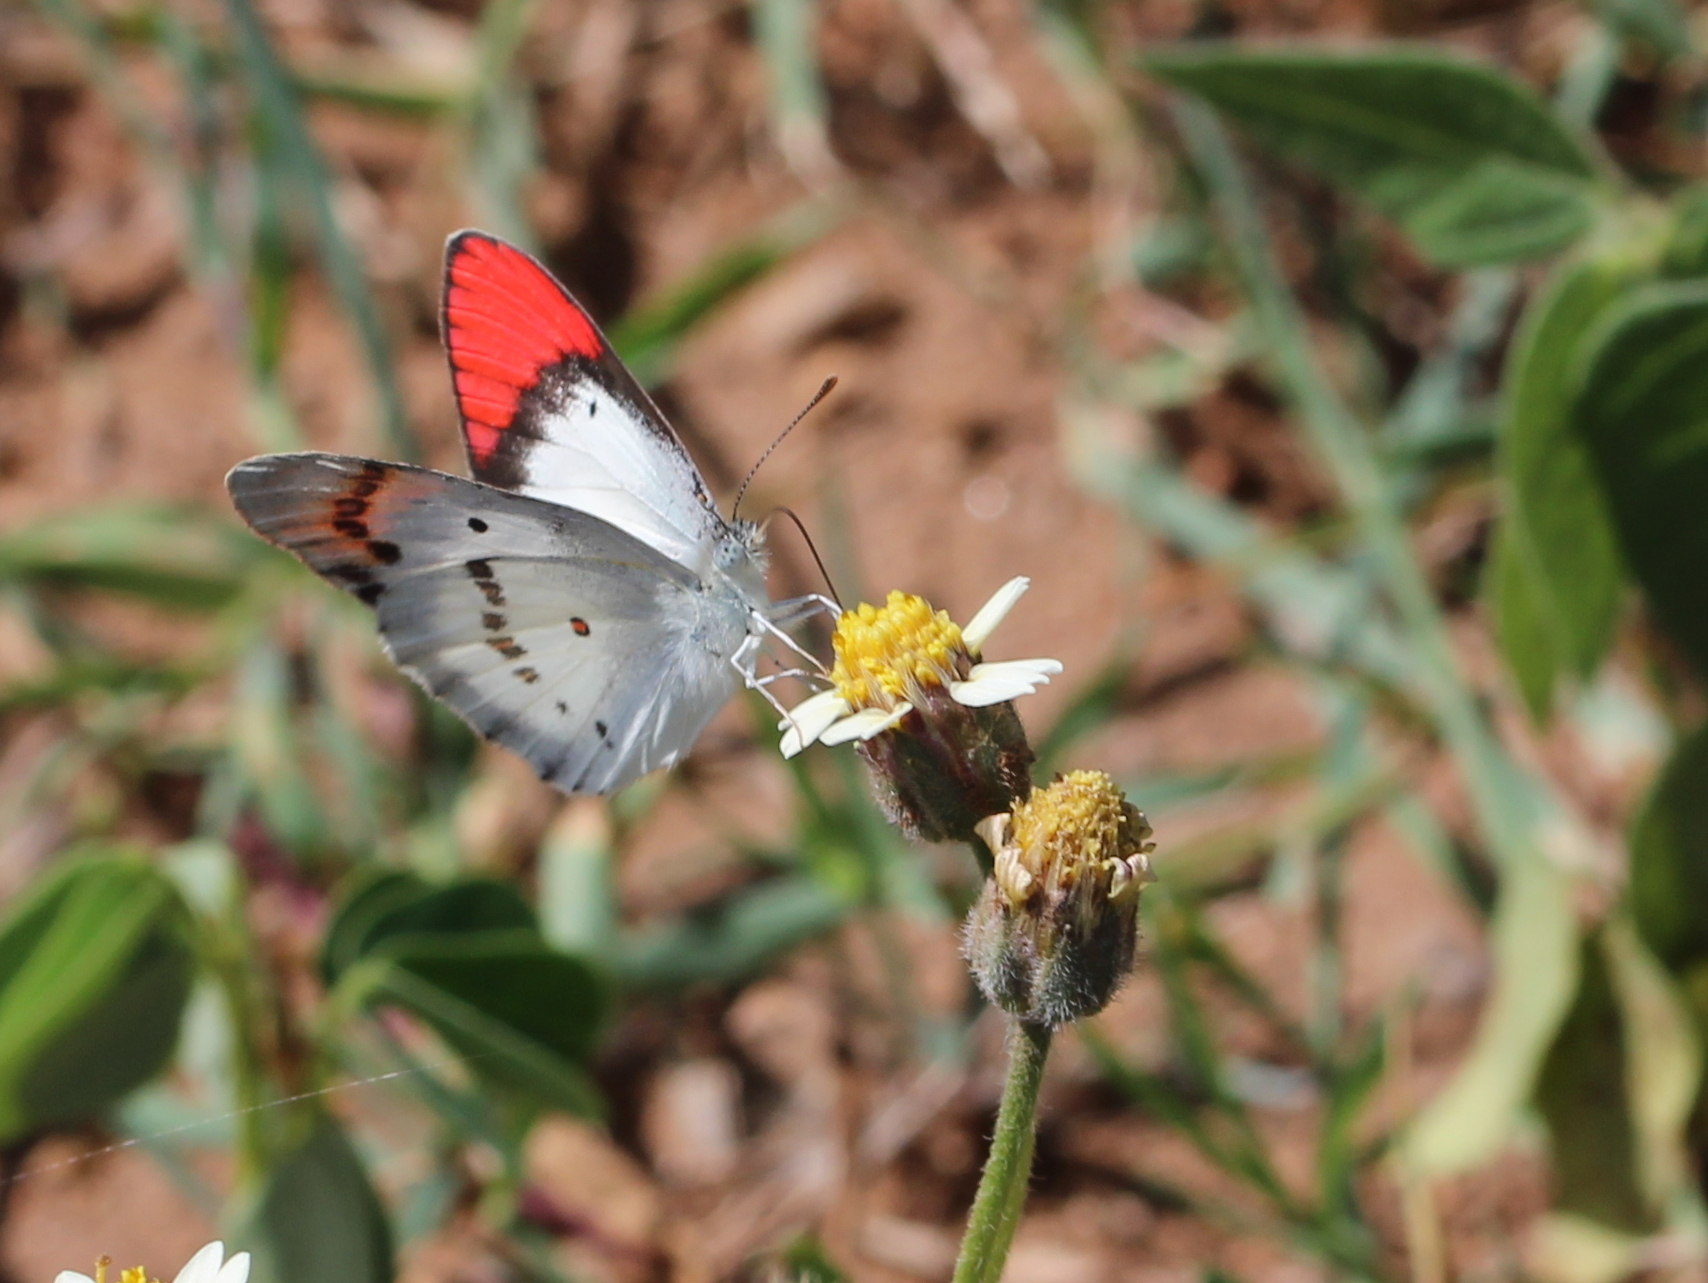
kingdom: Animalia
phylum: Arthropoda
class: Insecta
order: Lepidoptera
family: Pieridae
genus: Colotis
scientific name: Colotis danae
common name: Crimson tip
